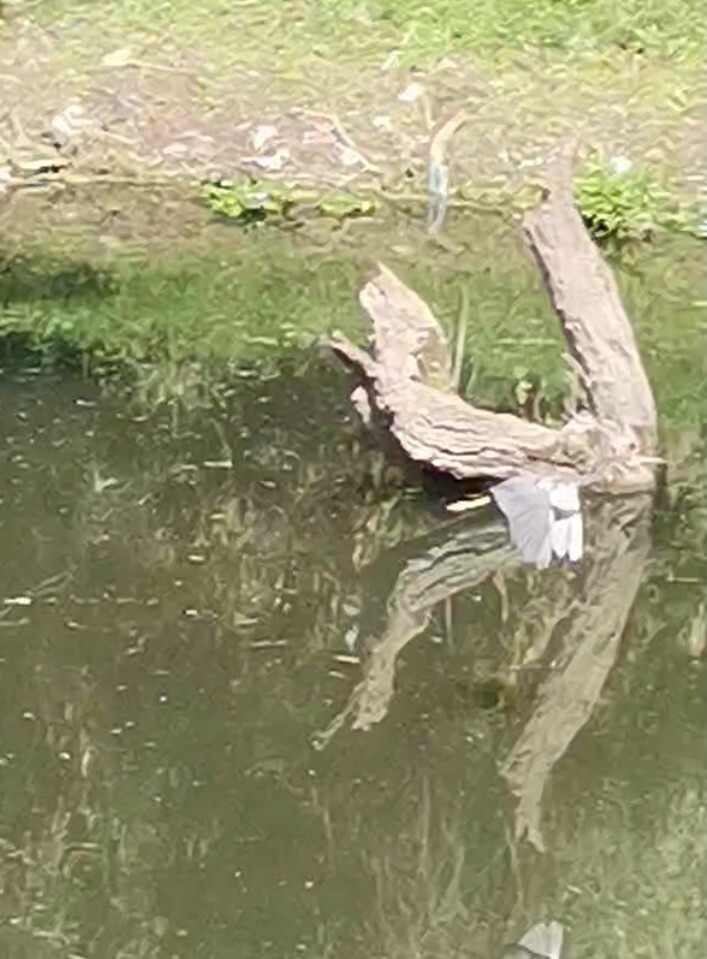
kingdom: Animalia
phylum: Chordata
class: Aves
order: Pelecaniformes
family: Ardeidae
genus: Egretta
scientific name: Egretta tricolor
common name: Tricolored heron
